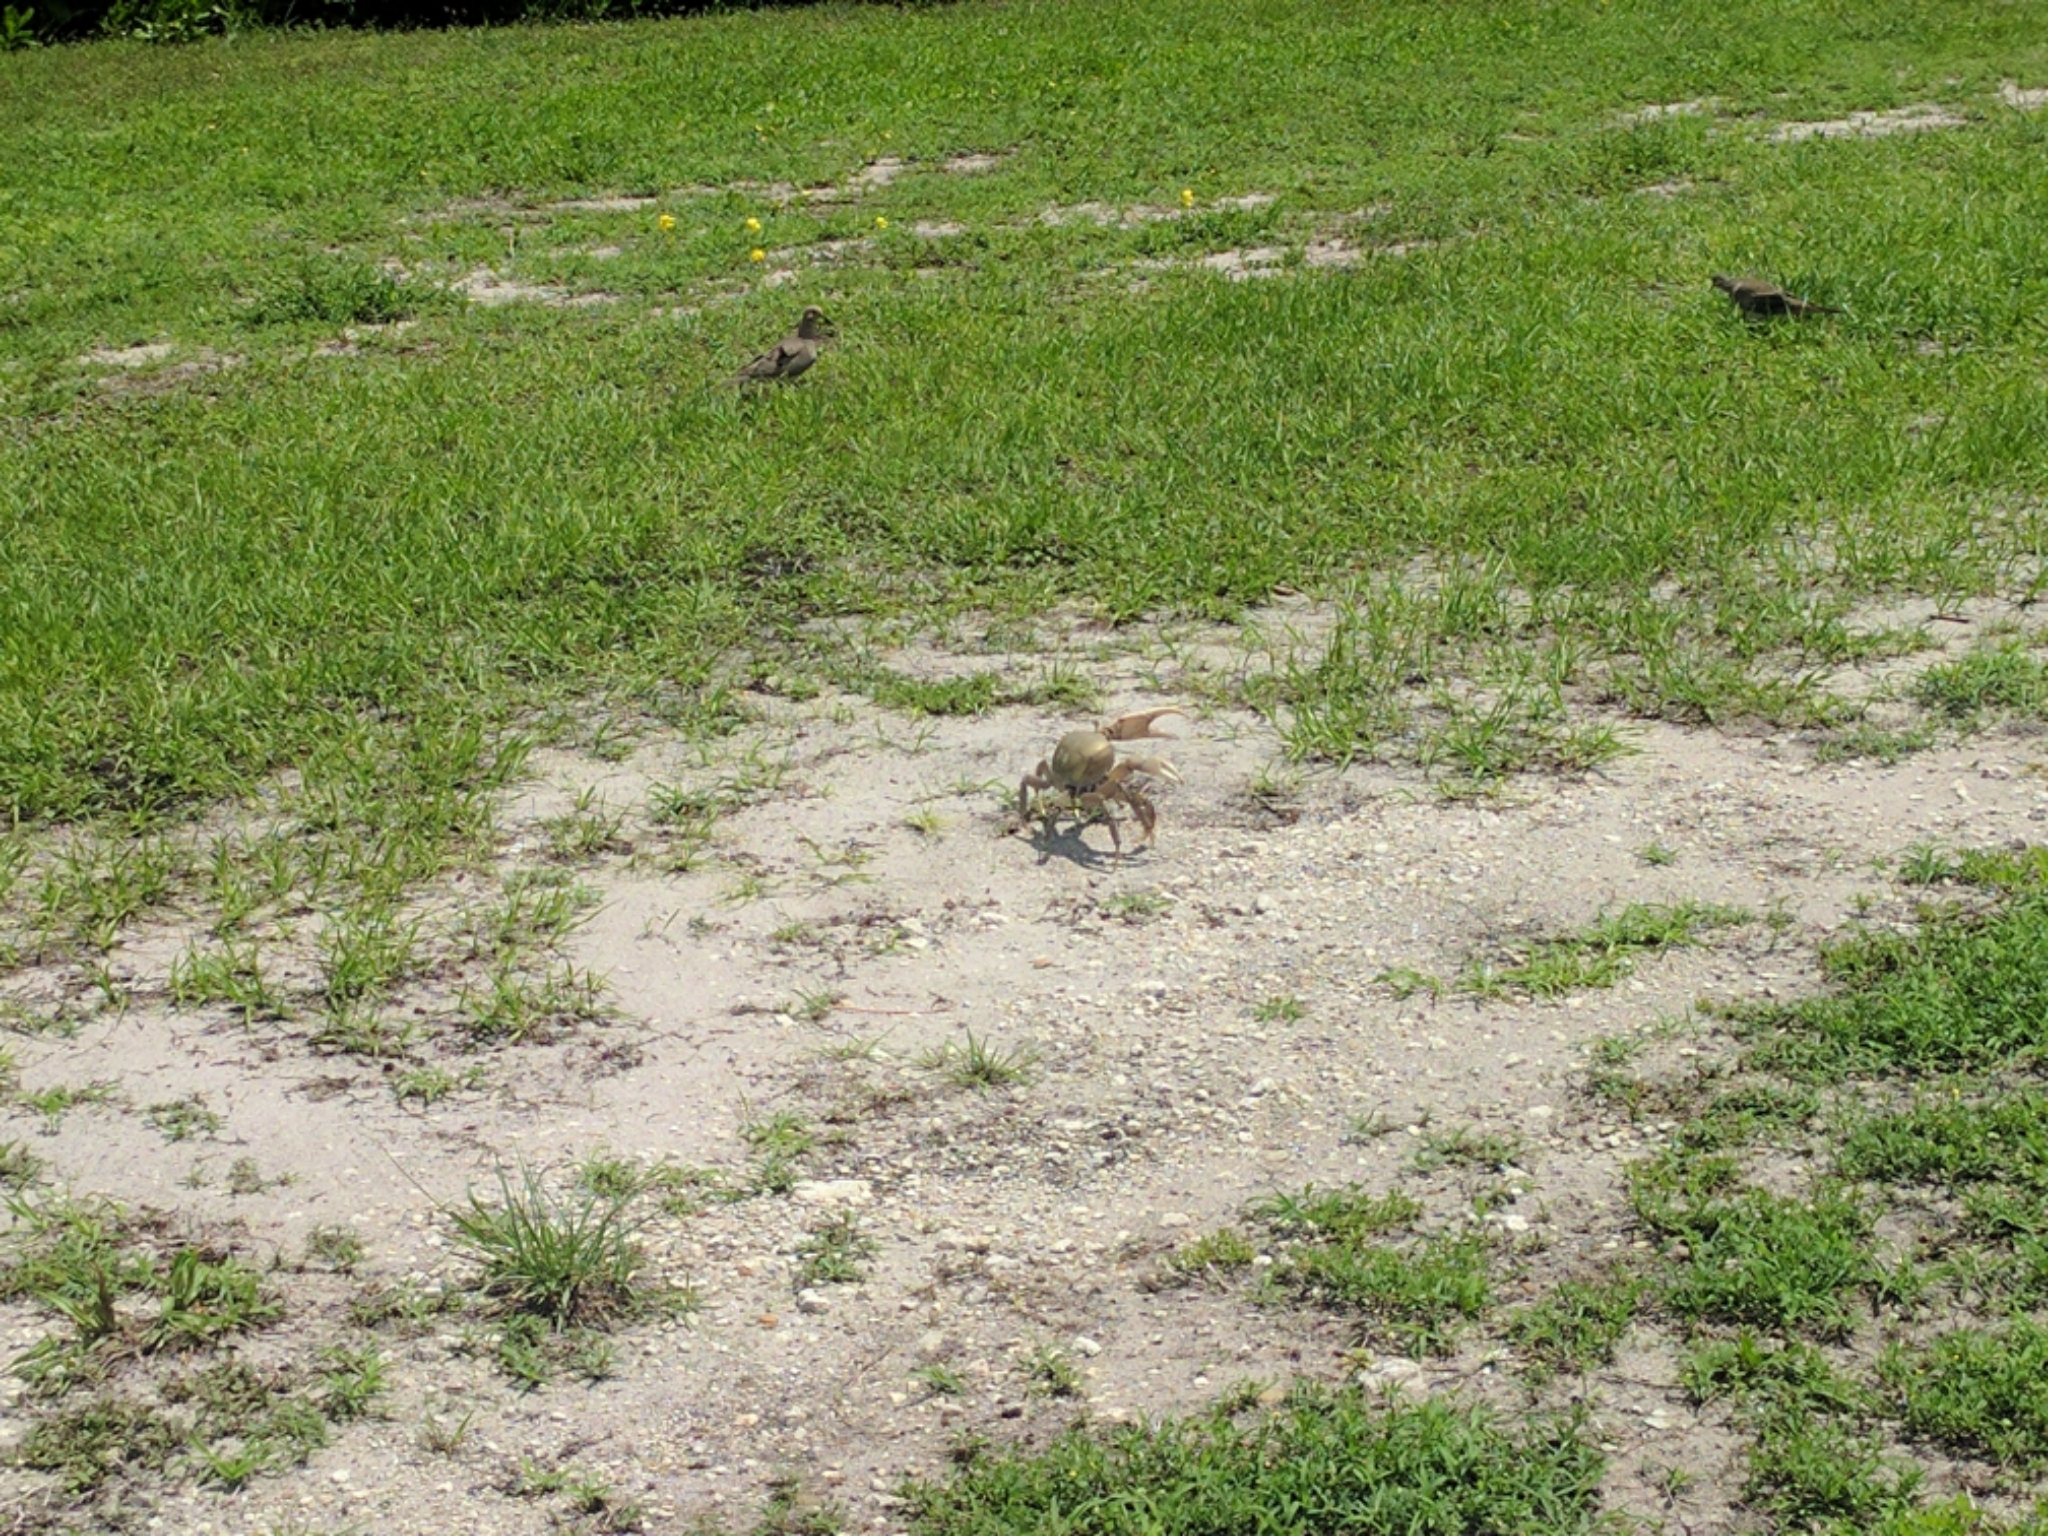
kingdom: Animalia
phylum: Arthropoda
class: Malacostraca
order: Decapoda
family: Gecarcinidae
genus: Cardisoma
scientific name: Cardisoma guanhumi
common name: Great land crab
